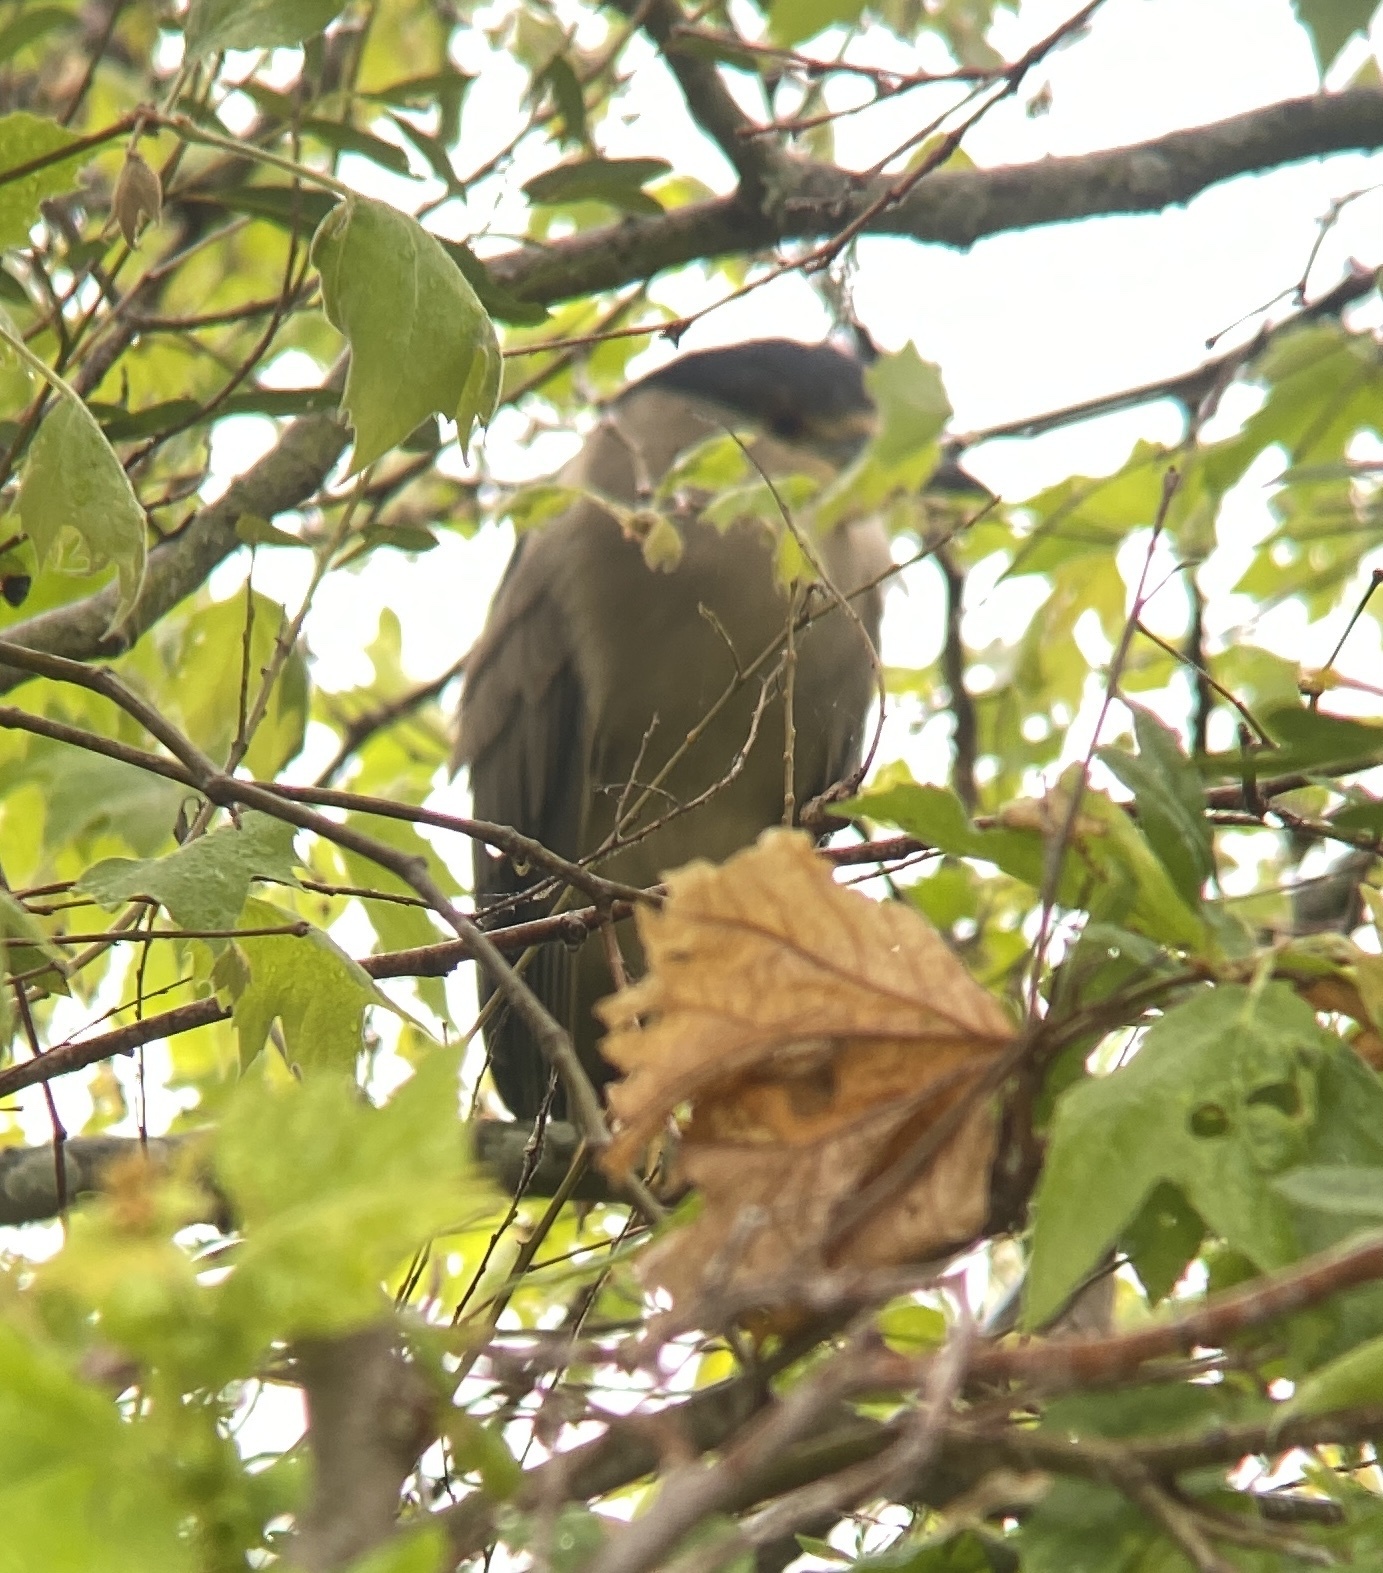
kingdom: Animalia
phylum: Chordata
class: Aves
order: Pelecaniformes
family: Ardeidae
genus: Nycticorax
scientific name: Nycticorax nycticorax
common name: Black-crowned night heron
